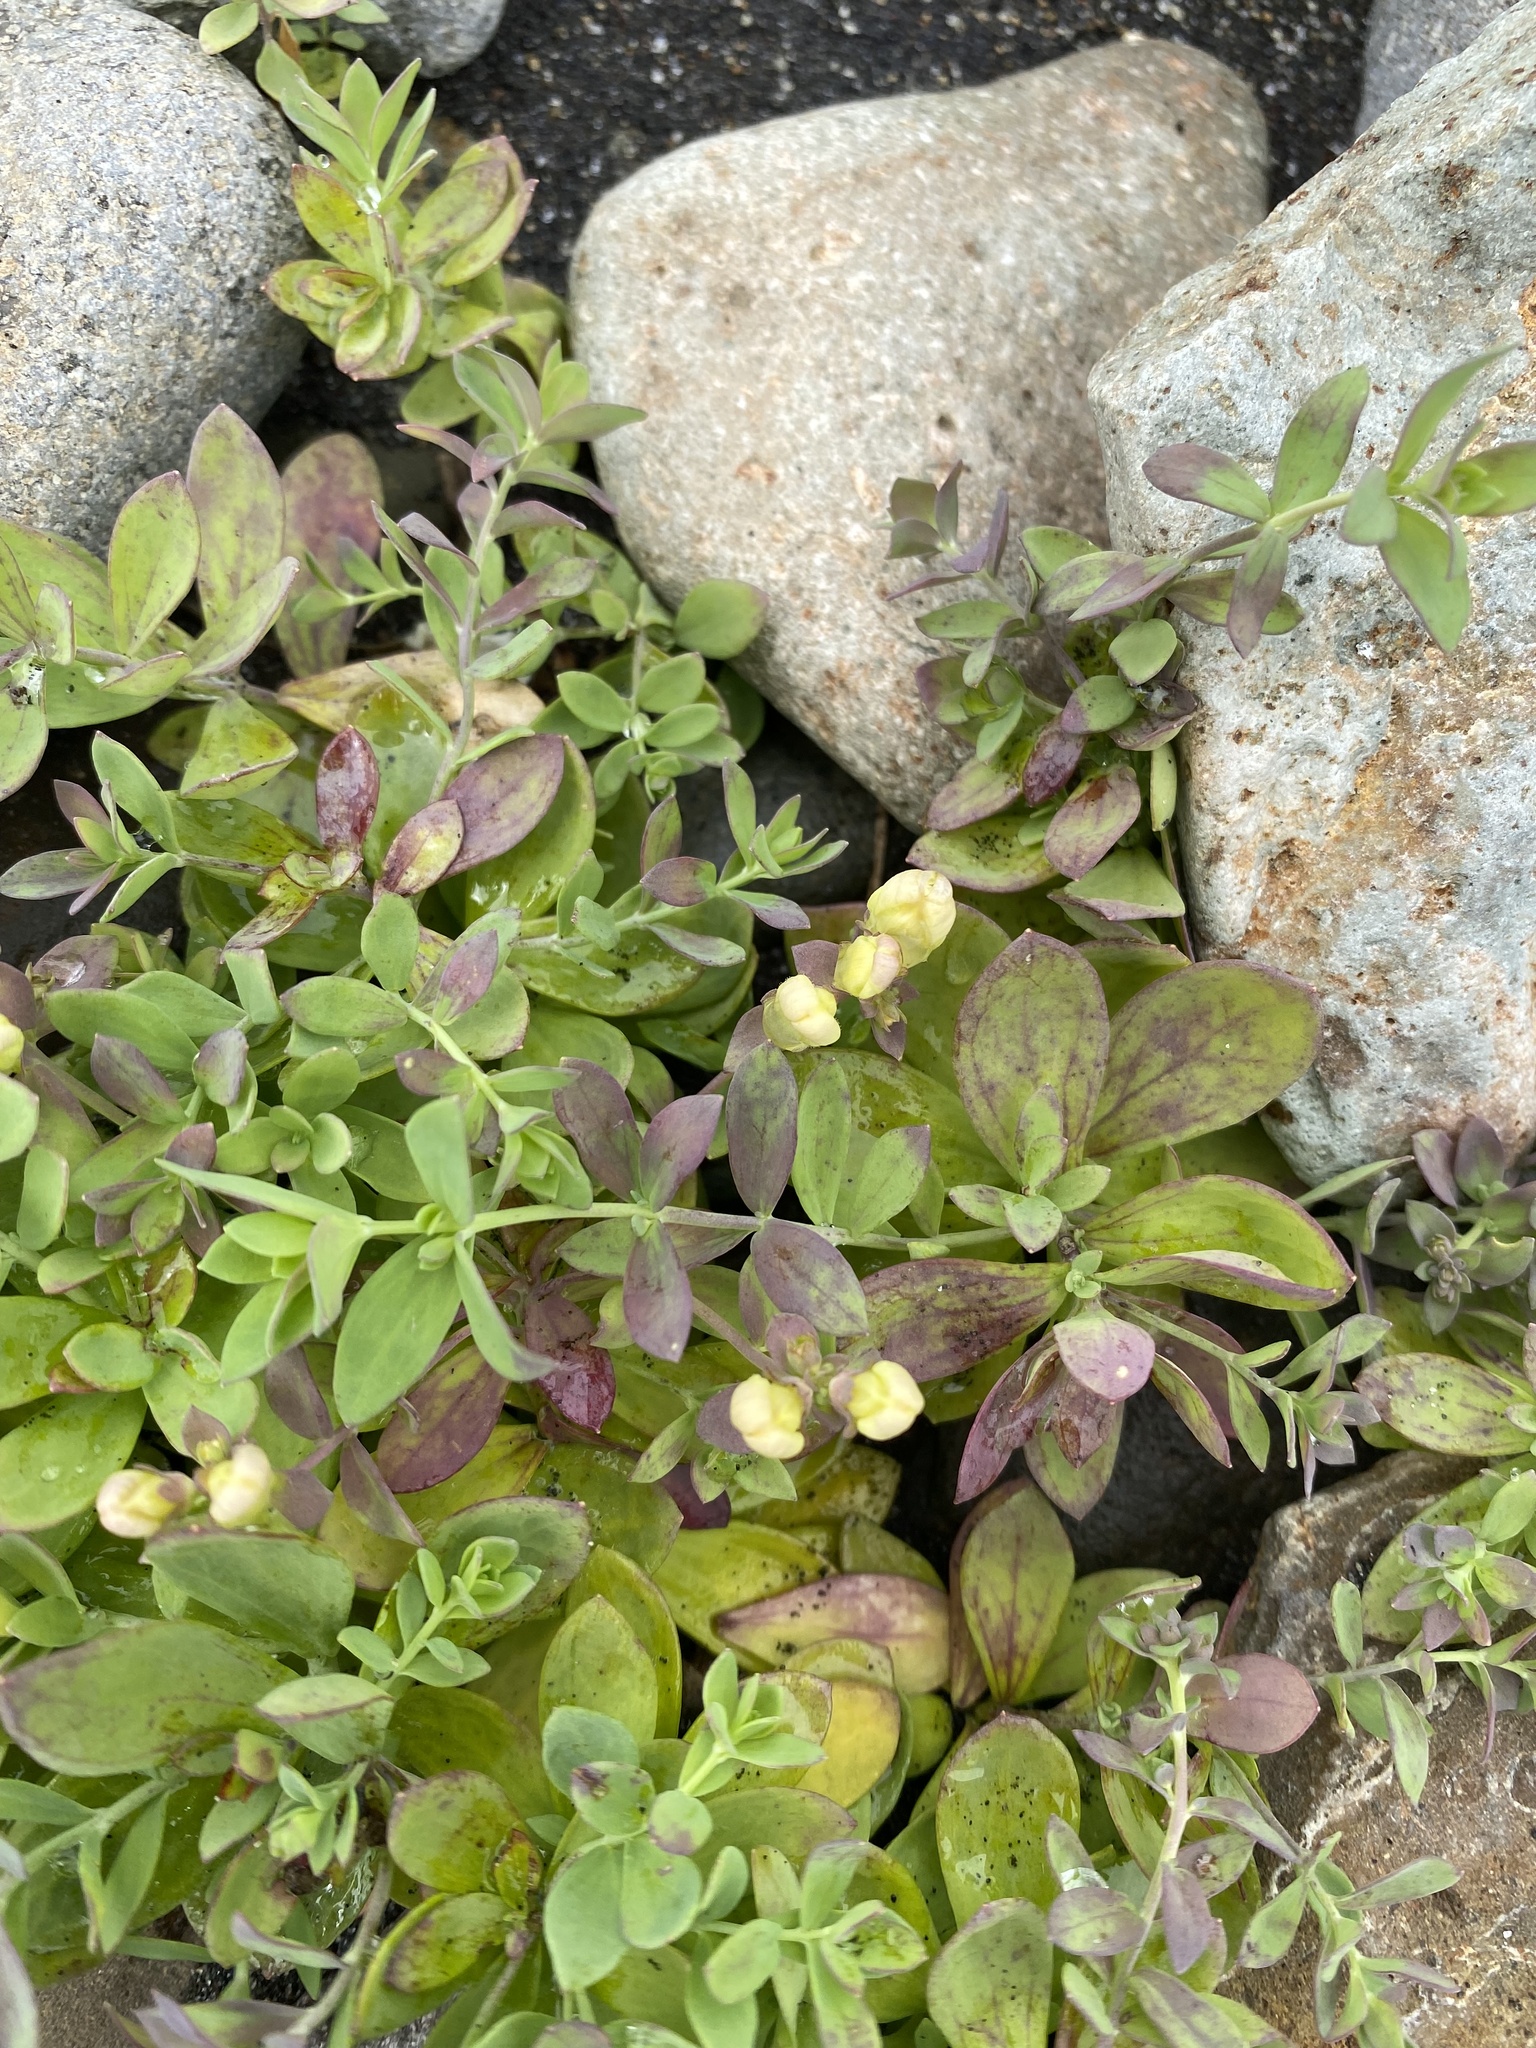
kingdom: Plantae
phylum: Tracheophyta
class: Magnoliopsida
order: Lamiales
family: Plantaginaceae
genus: Linaria
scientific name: Linaria japonica
